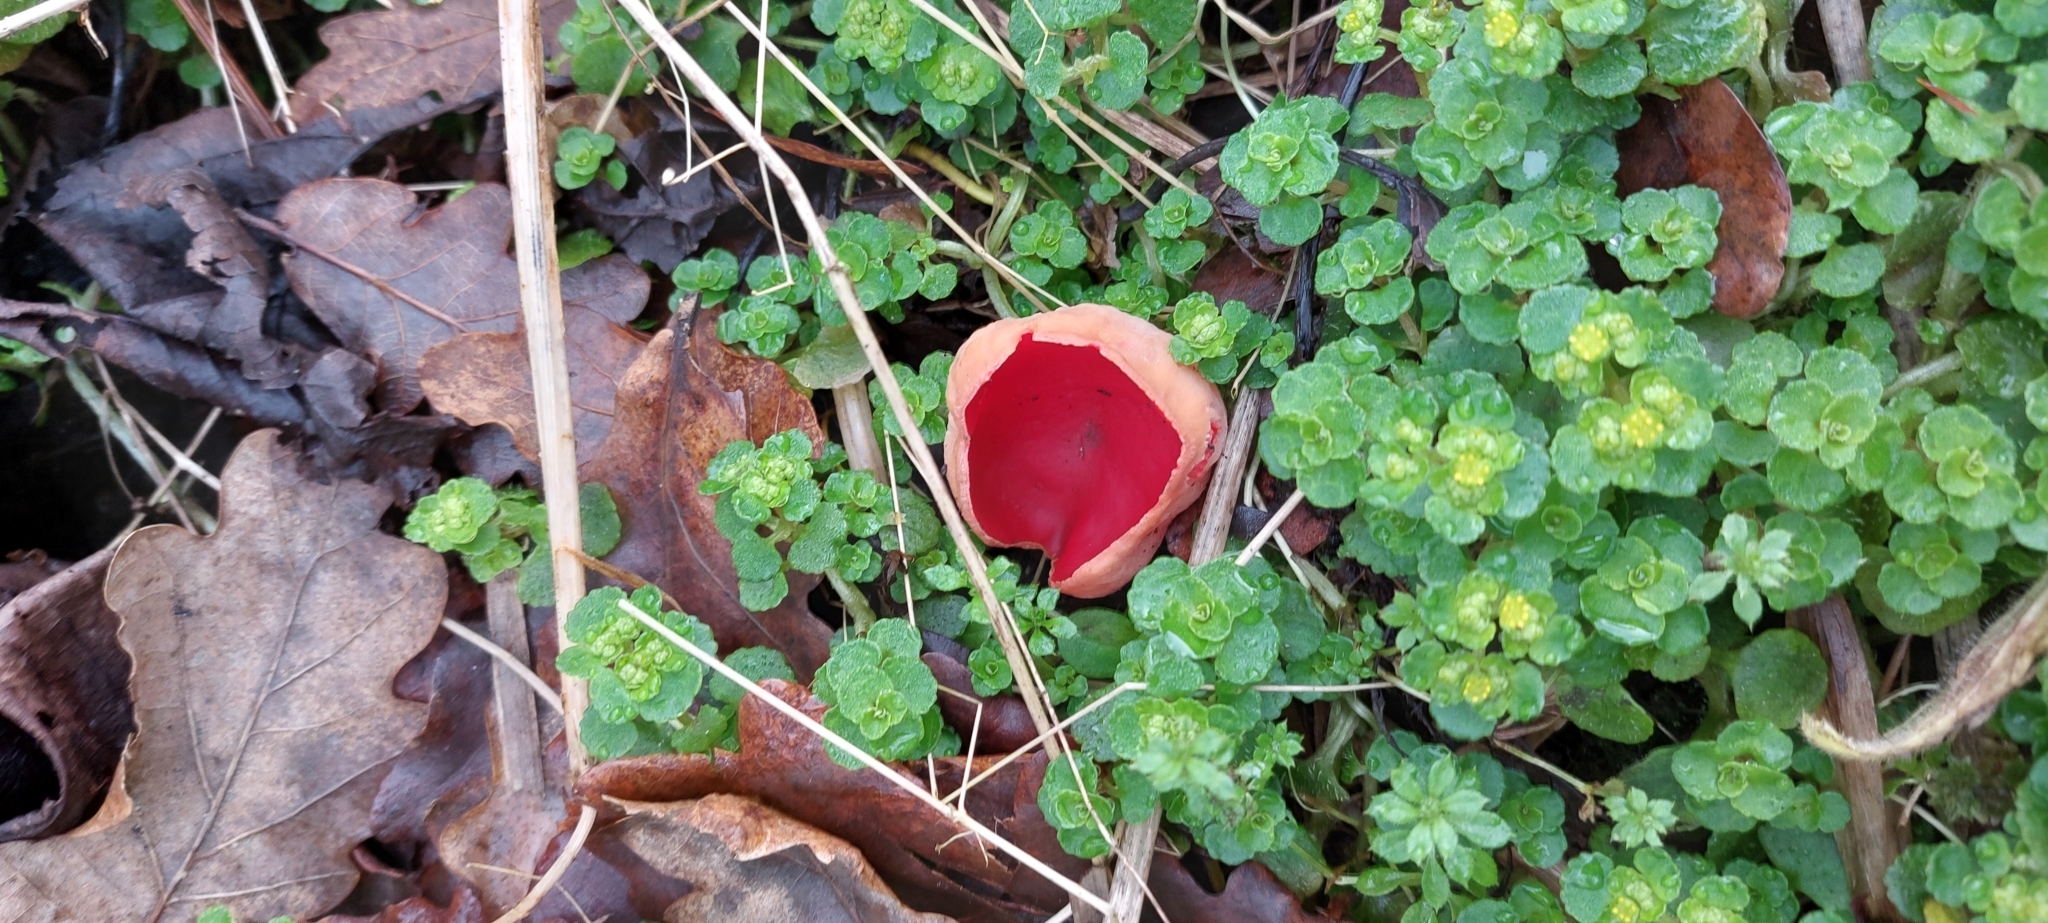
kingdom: Fungi
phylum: Ascomycota
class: Pezizomycetes
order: Pezizales
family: Sarcoscyphaceae
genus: Sarcoscypha
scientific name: Sarcoscypha
